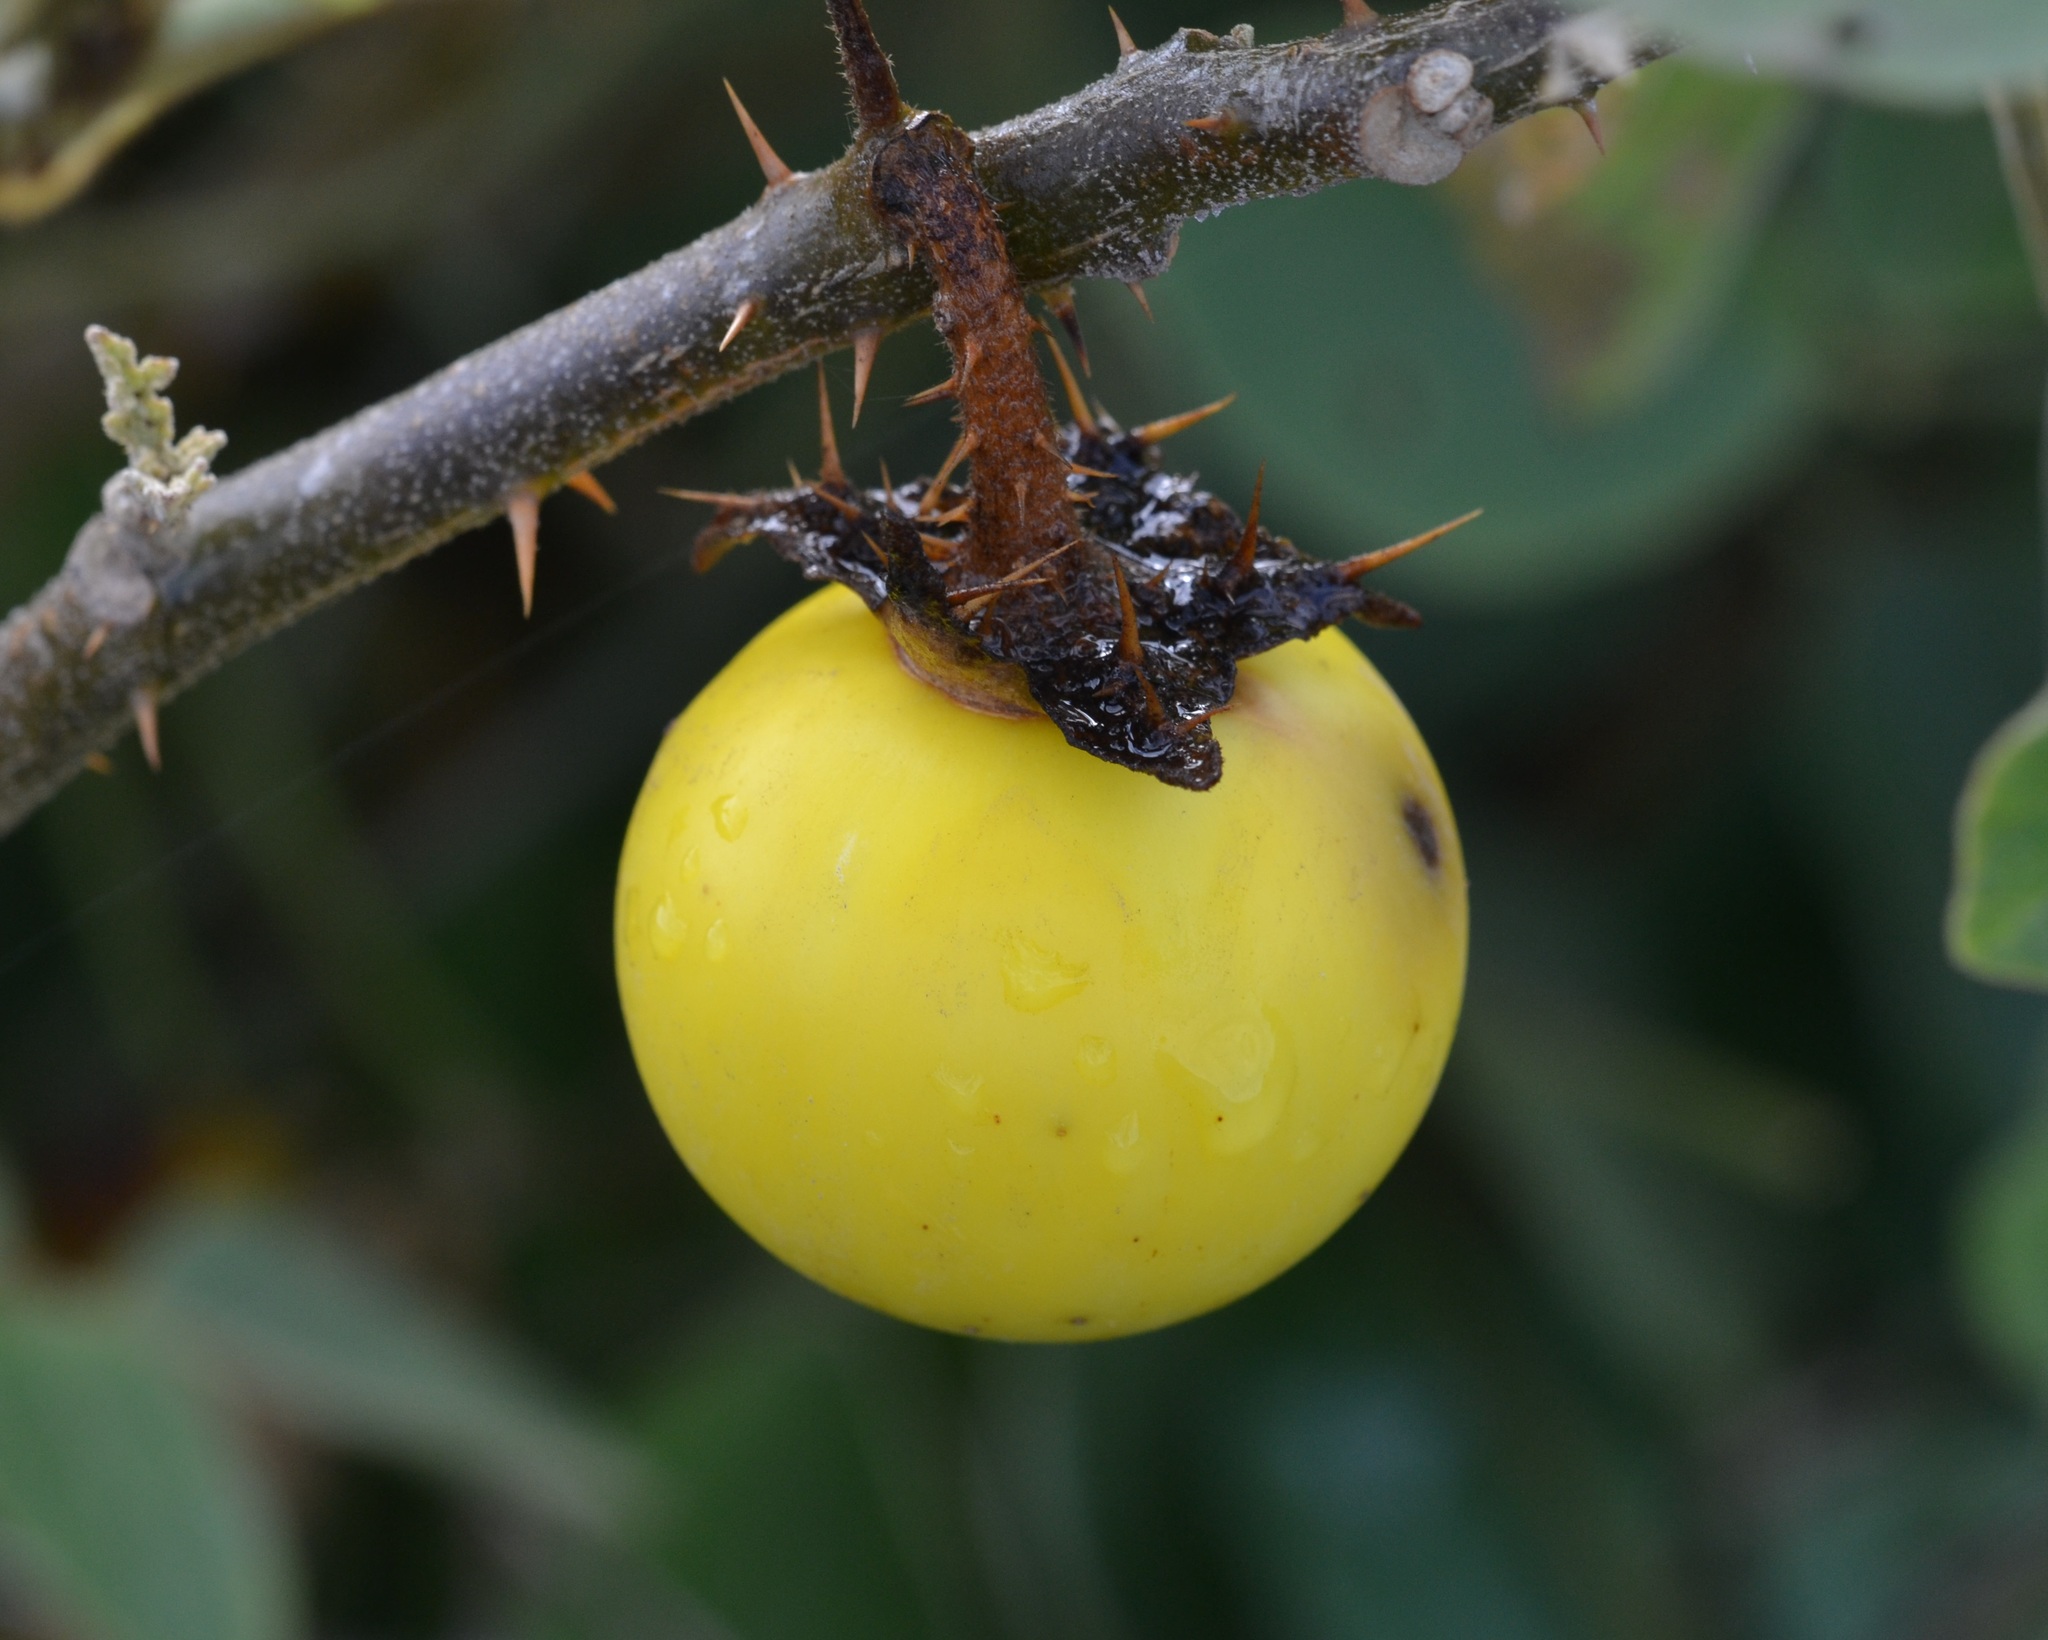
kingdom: Plantae
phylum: Tracheophyta
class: Magnoliopsida
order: Solanales
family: Solanaceae
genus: Solanum
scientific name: Solanum linnaeanum
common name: Nightshade
